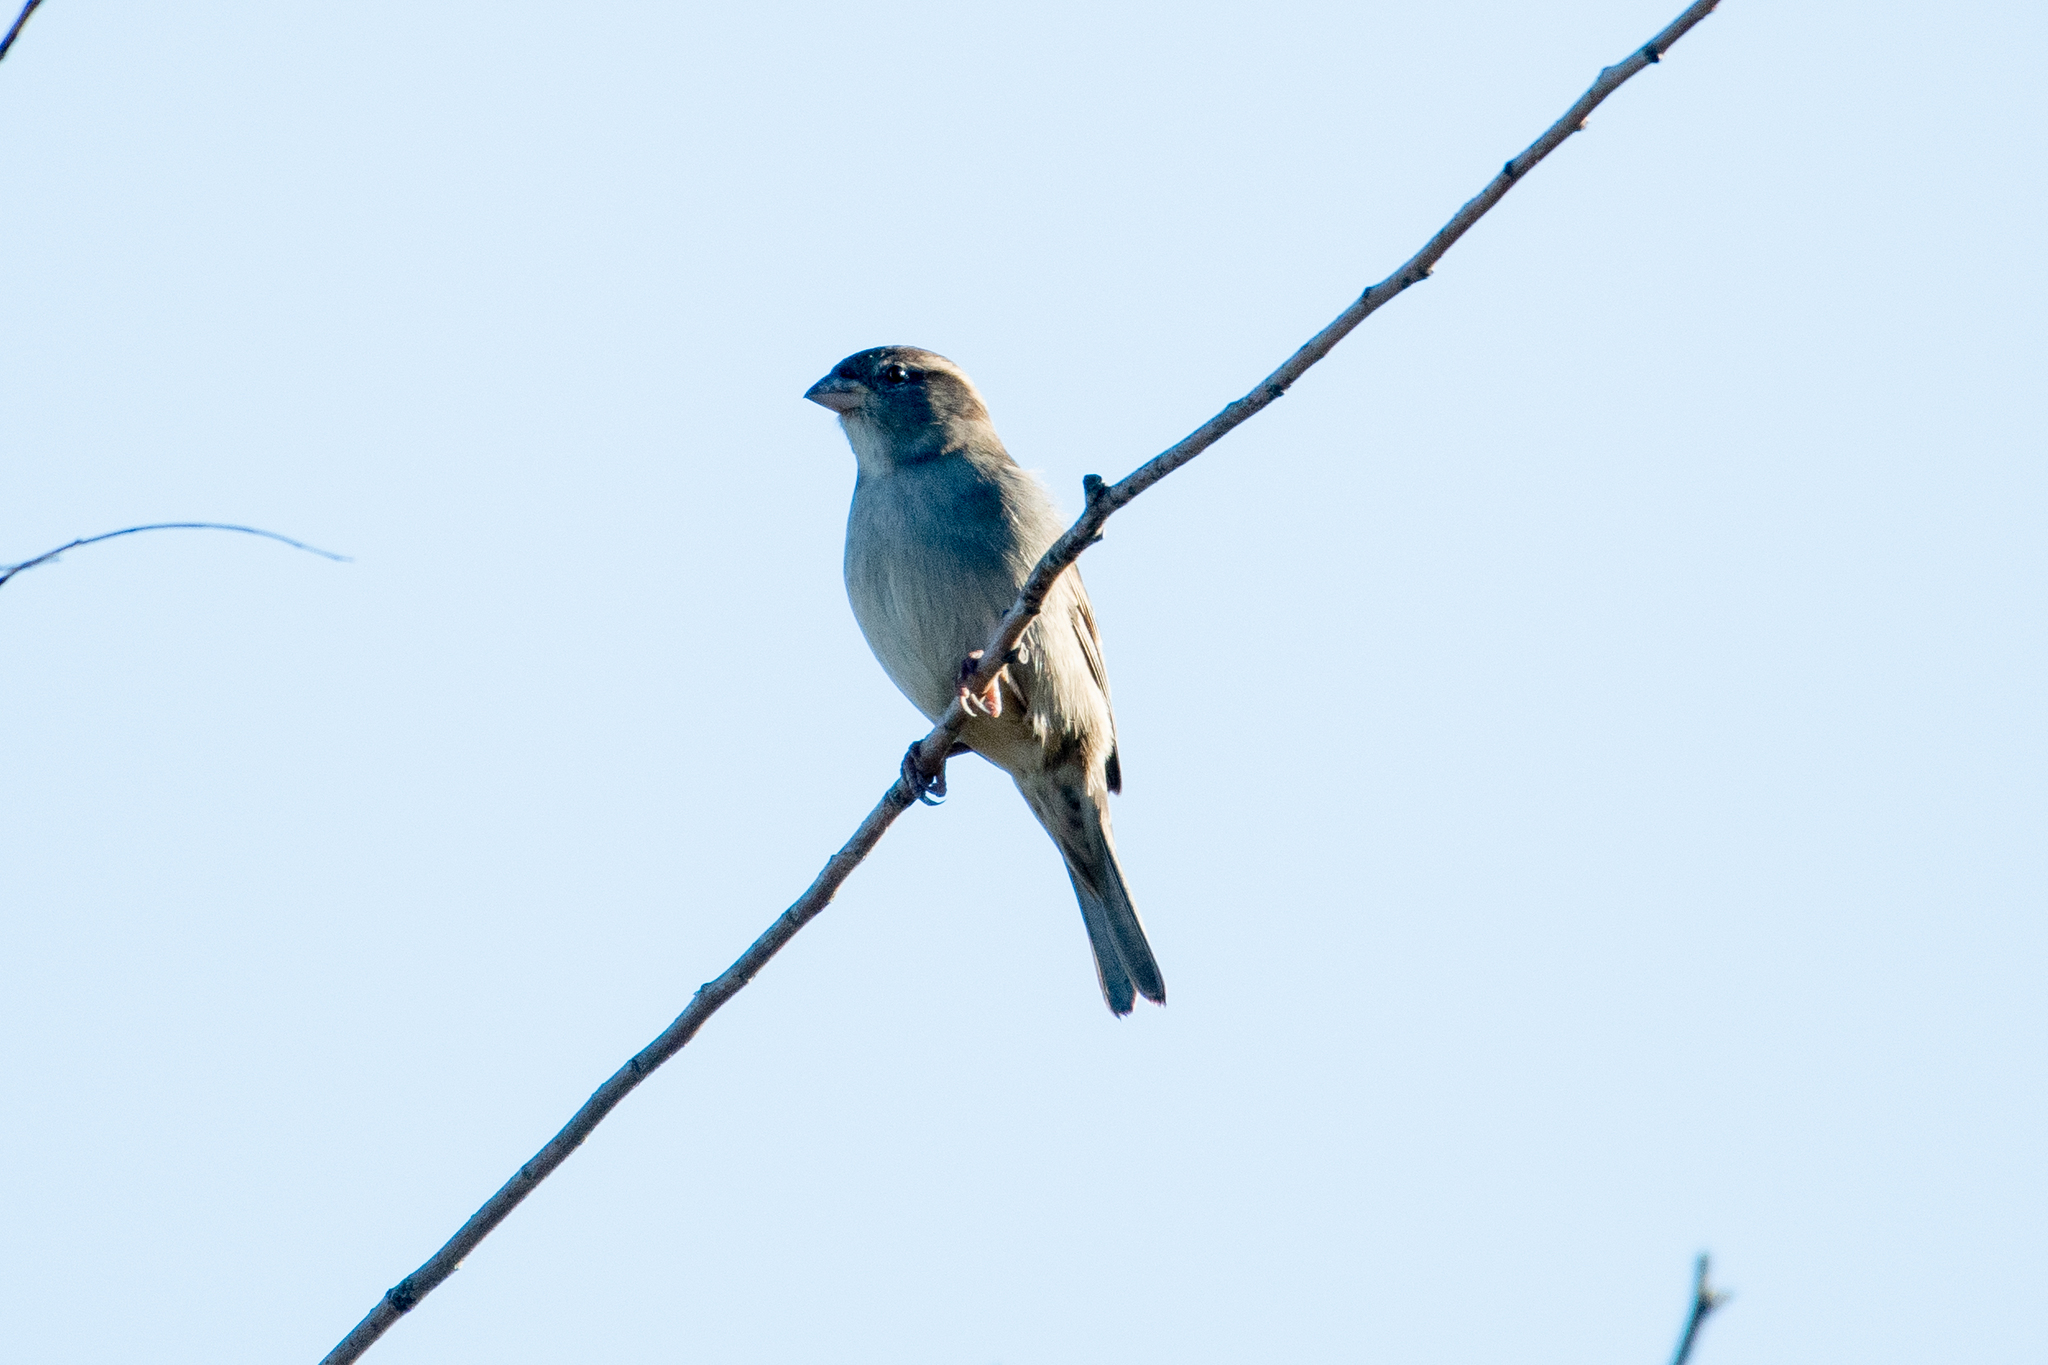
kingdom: Animalia
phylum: Chordata
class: Aves
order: Passeriformes
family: Passeridae
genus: Passer
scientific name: Passer domesticus
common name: House sparrow
